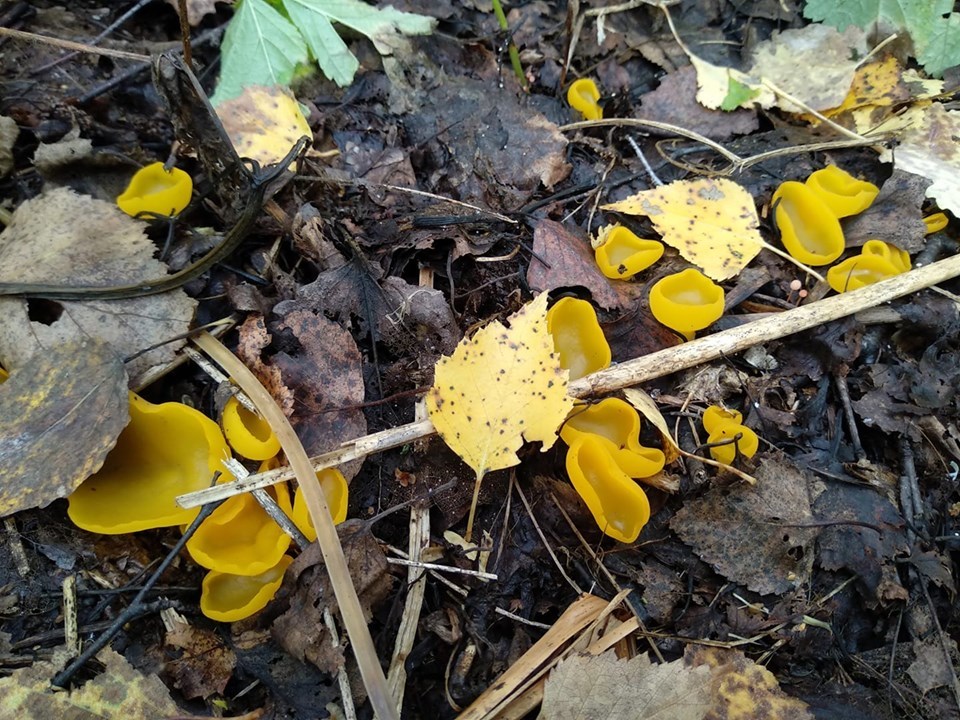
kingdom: Fungi
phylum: Ascomycota
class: Pezizomycetes
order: Pezizales
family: Pyronemataceae
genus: Sowerbyella
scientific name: Sowerbyella imperialis
